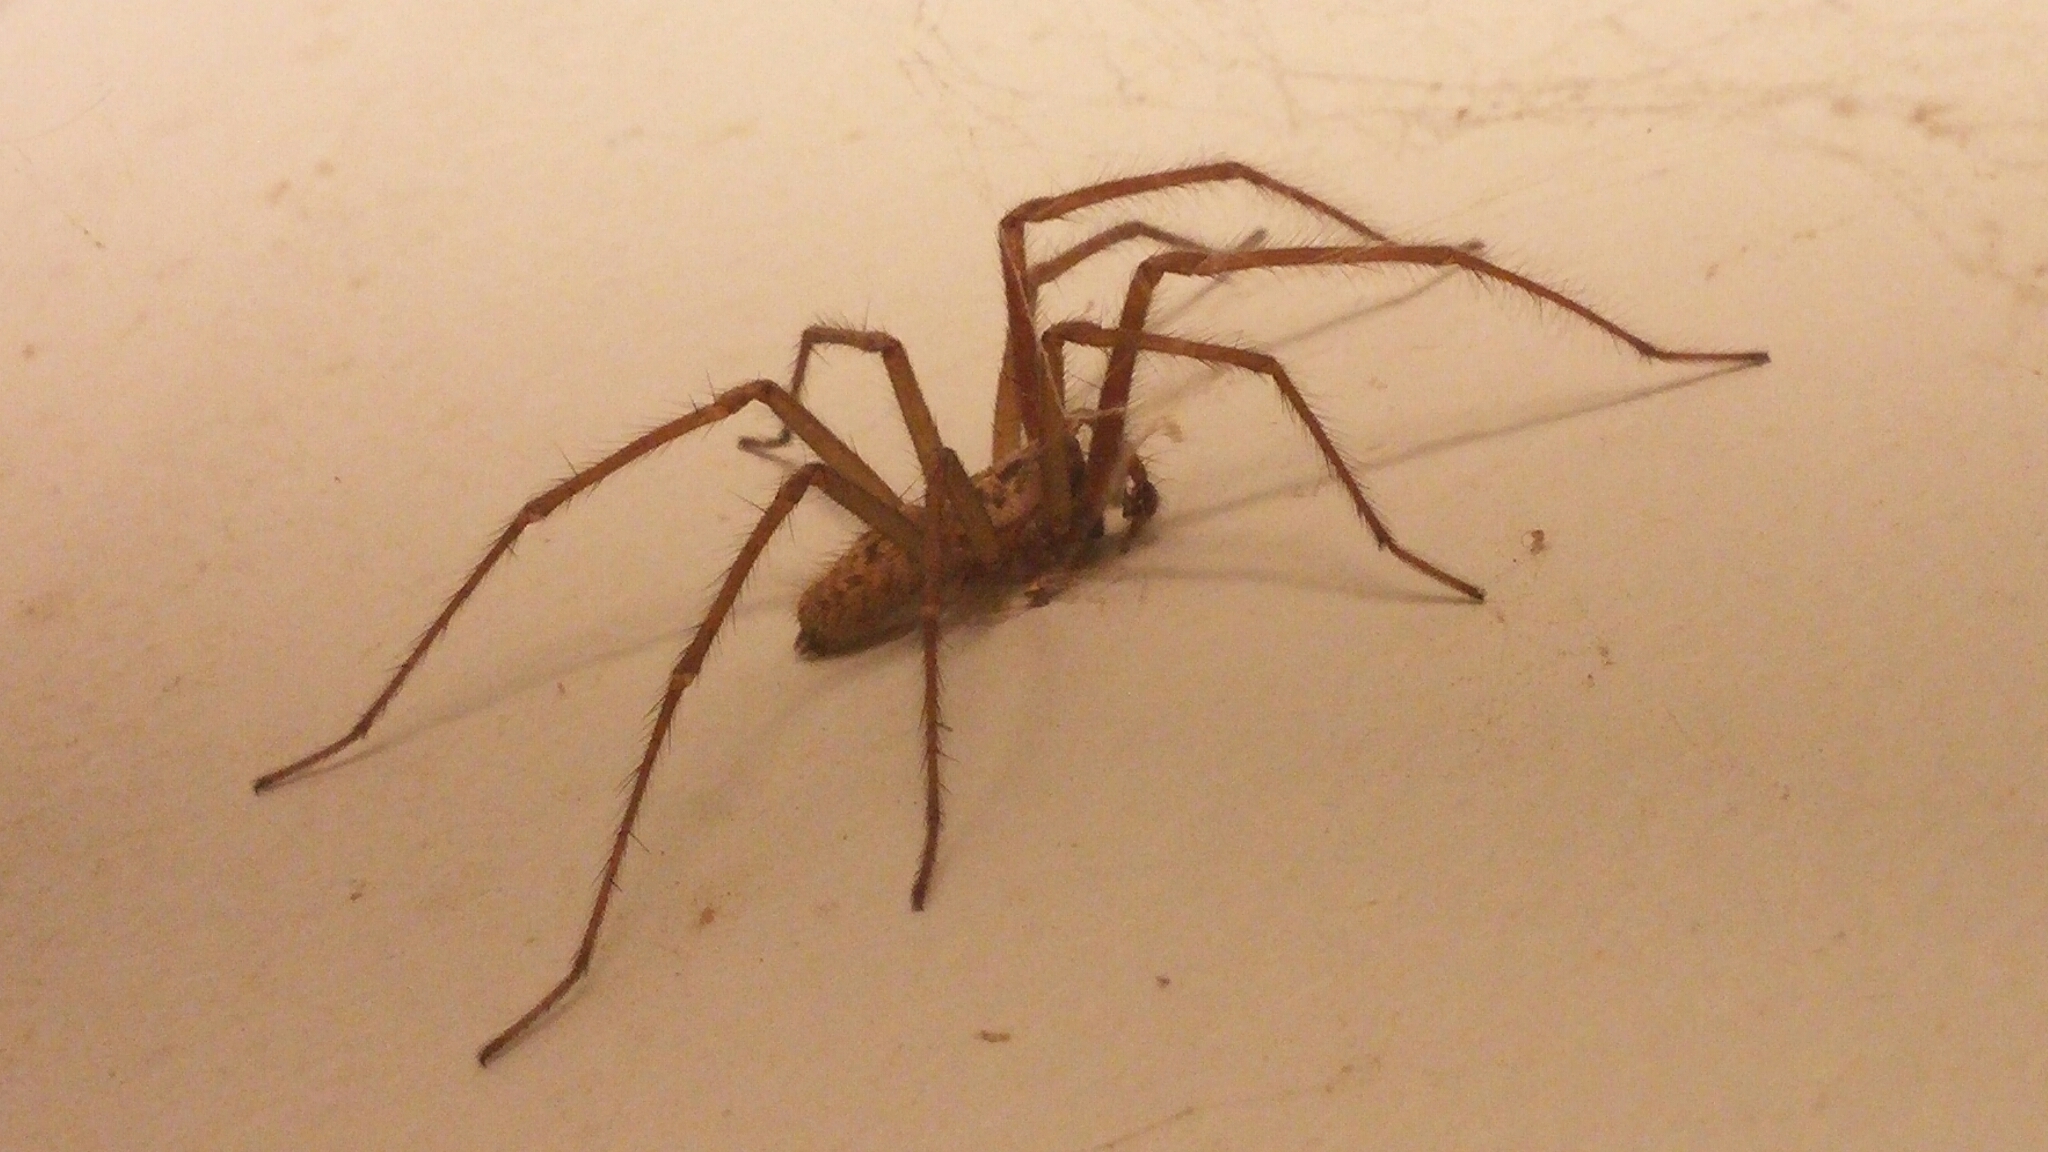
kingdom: Animalia
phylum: Arthropoda
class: Arachnida
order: Araneae
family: Agelenidae
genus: Eratigena
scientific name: Eratigena duellica
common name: Giant house spider
